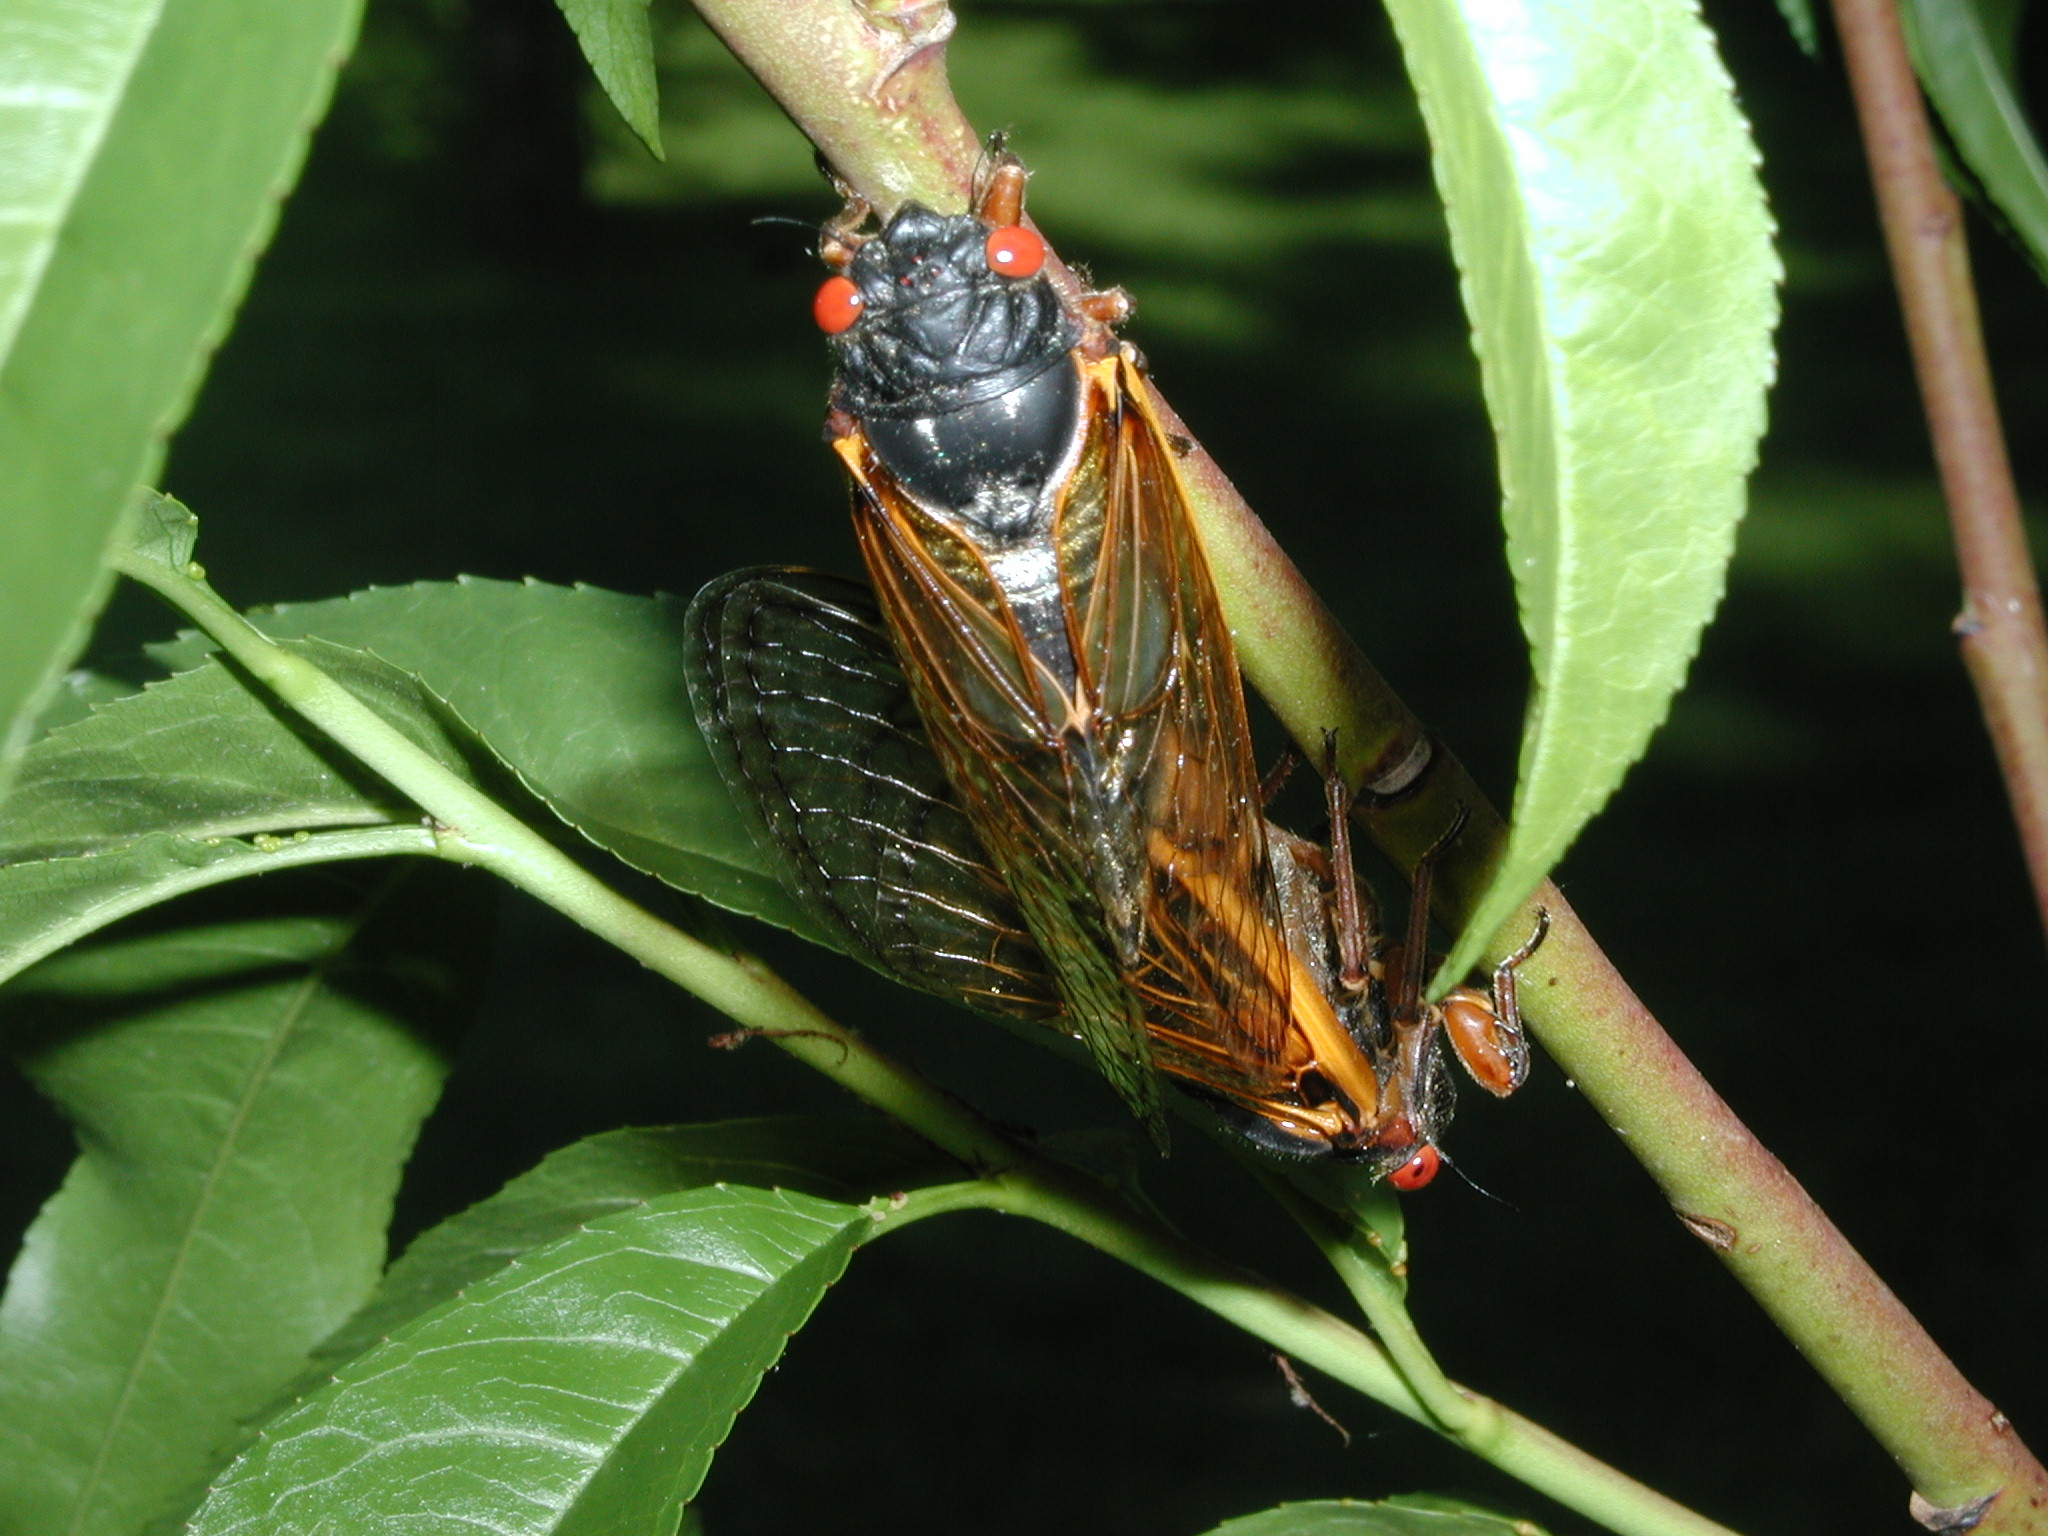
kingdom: Animalia
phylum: Arthropoda
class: Insecta
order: Hemiptera
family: Cicadidae
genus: Magicicada
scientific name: Magicicada septendecim
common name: Periodical cicada
